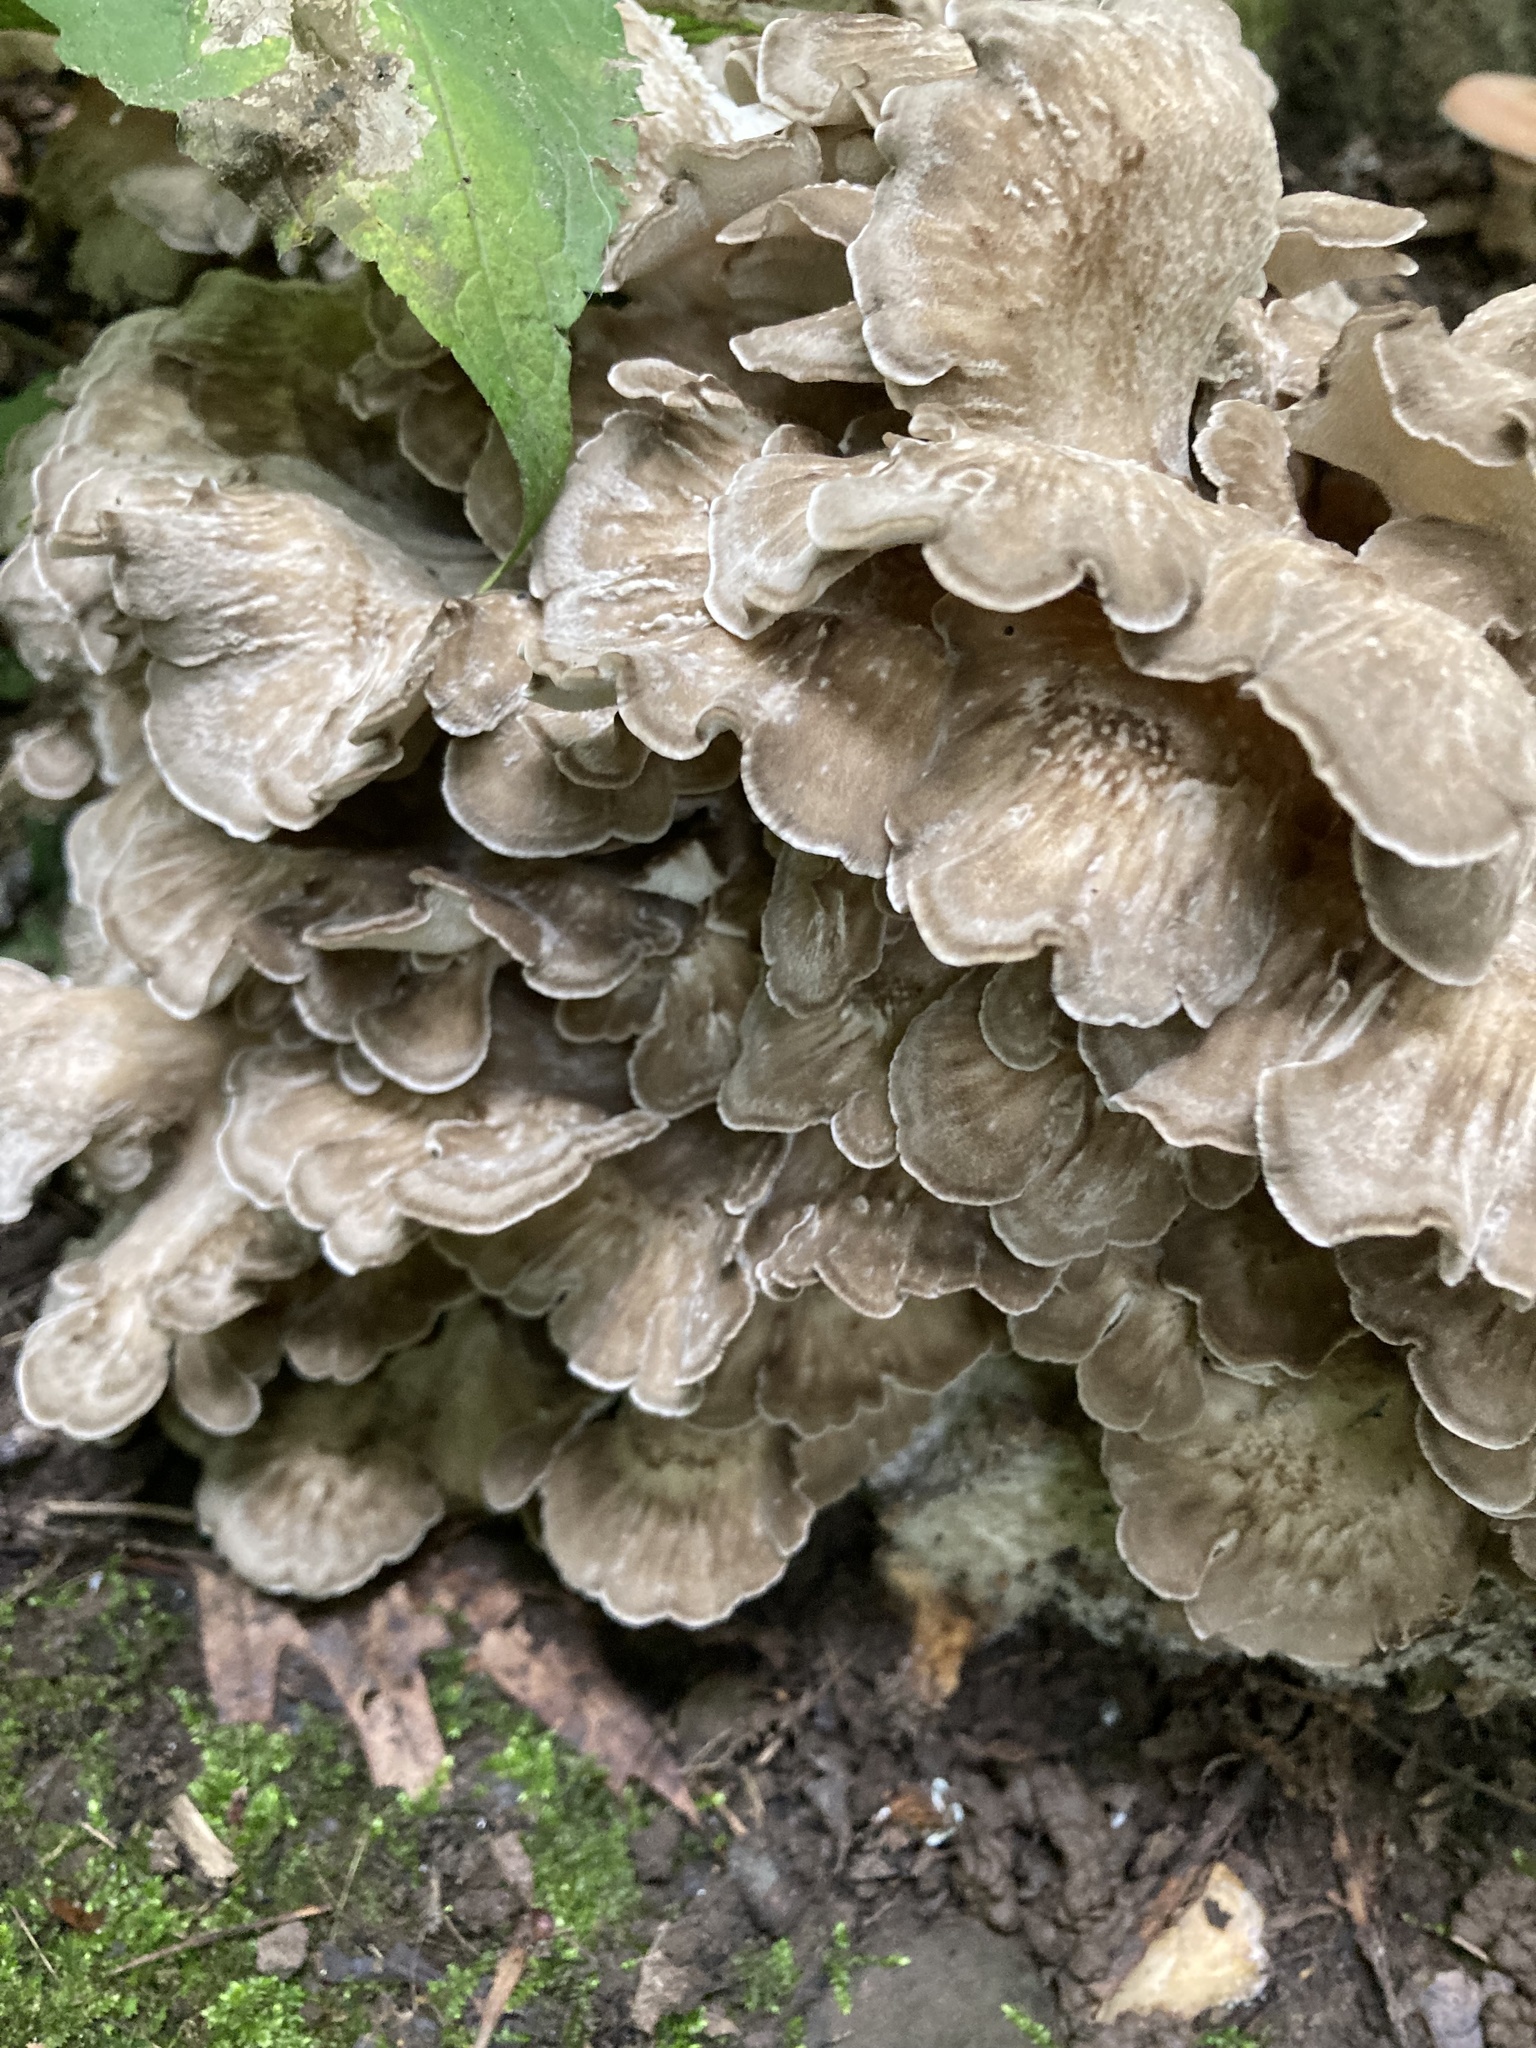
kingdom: Fungi
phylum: Basidiomycota
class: Agaricomycetes
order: Polyporales
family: Grifolaceae
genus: Grifola
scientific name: Grifola frondosa
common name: Hen of the woods
